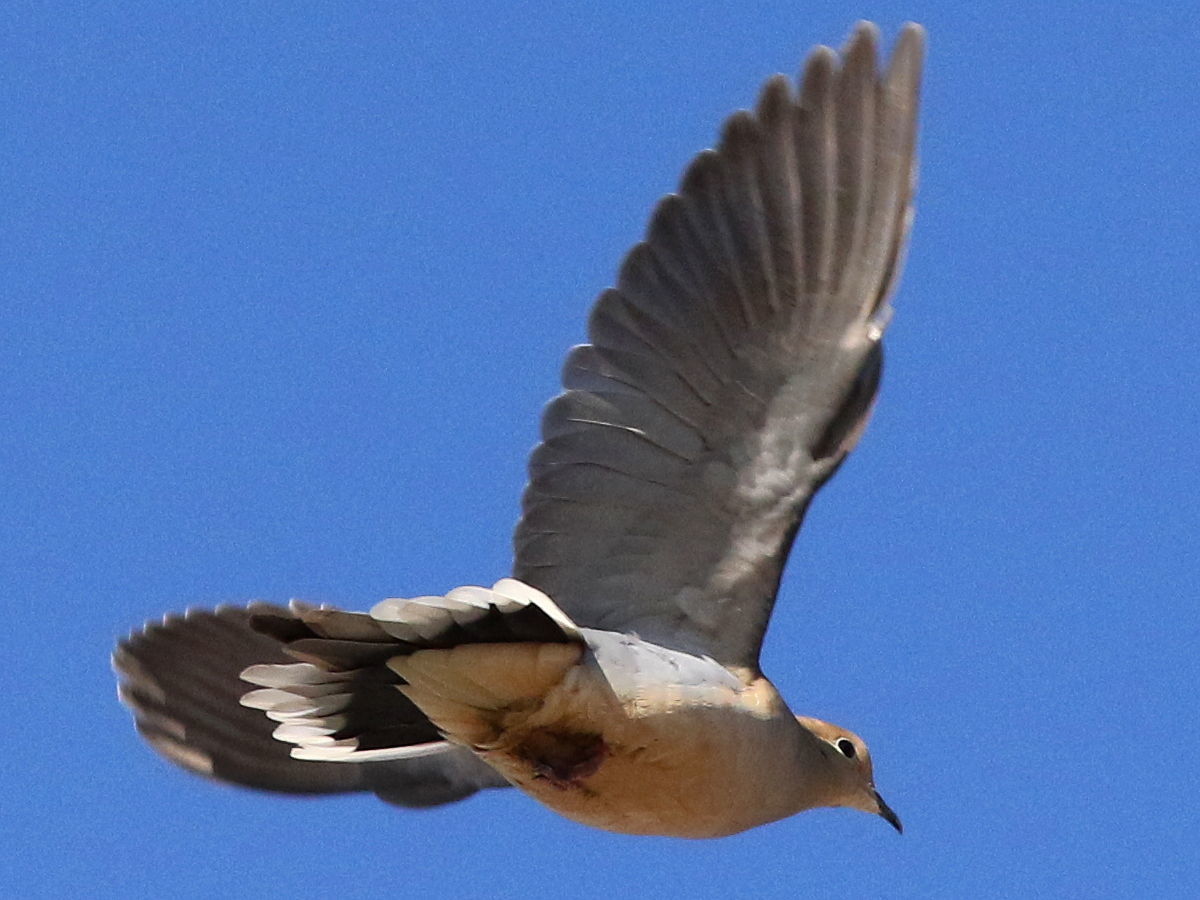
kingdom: Animalia
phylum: Chordata
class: Aves
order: Columbiformes
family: Columbidae
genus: Zenaida
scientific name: Zenaida macroura
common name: Mourning dove
